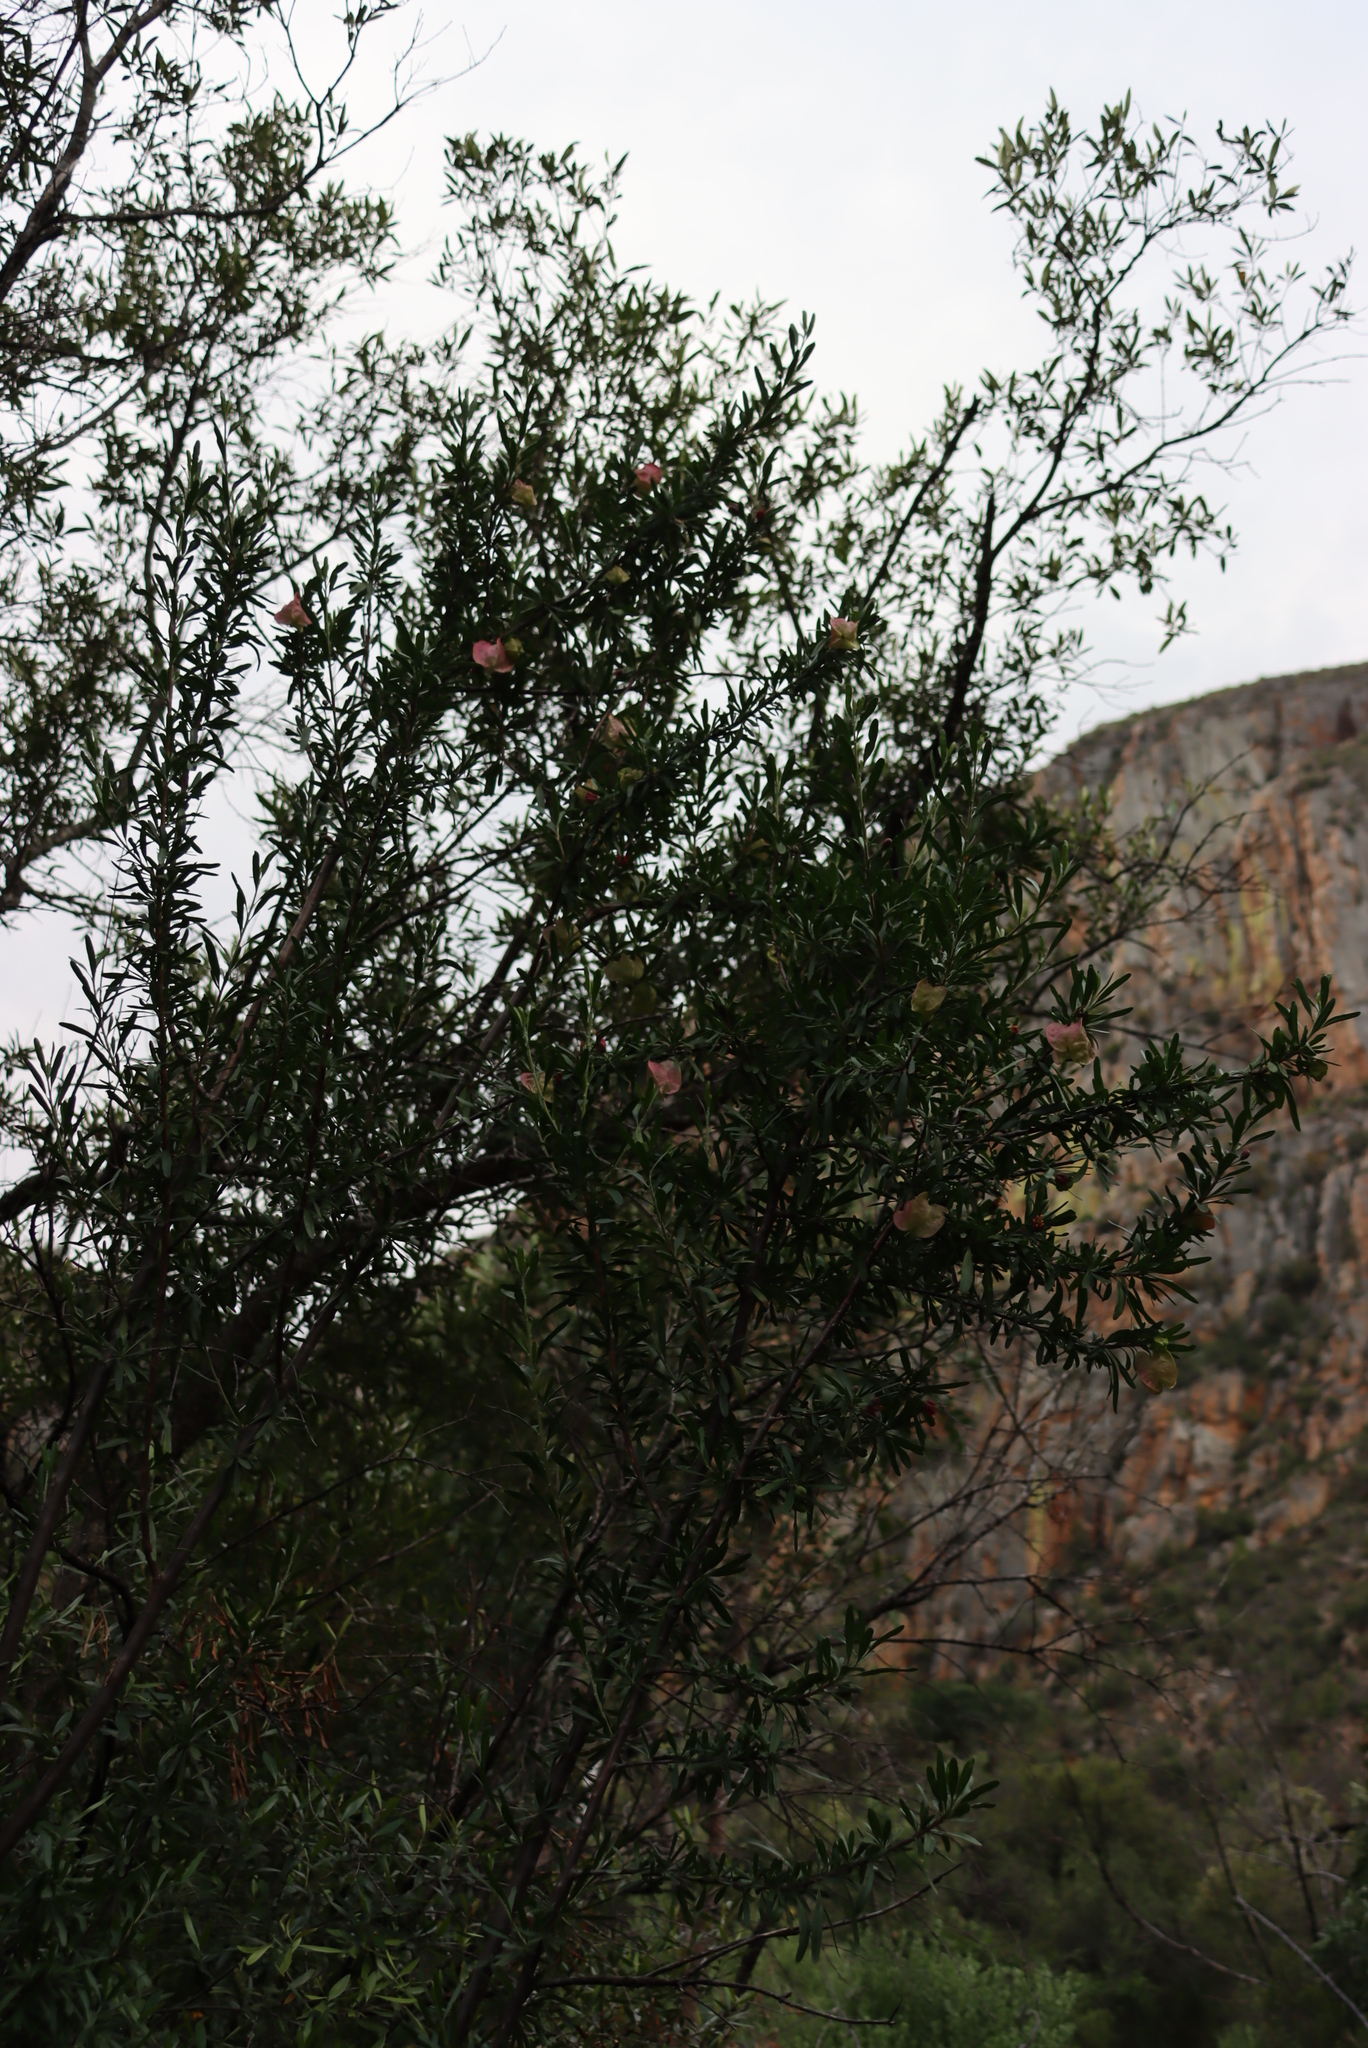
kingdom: Plantae
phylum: Tracheophyta
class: Magnoliopsida
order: Sapindales
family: Meliaceae
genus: Nymania
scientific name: Nymania capensis
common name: Chinese lantern tree
